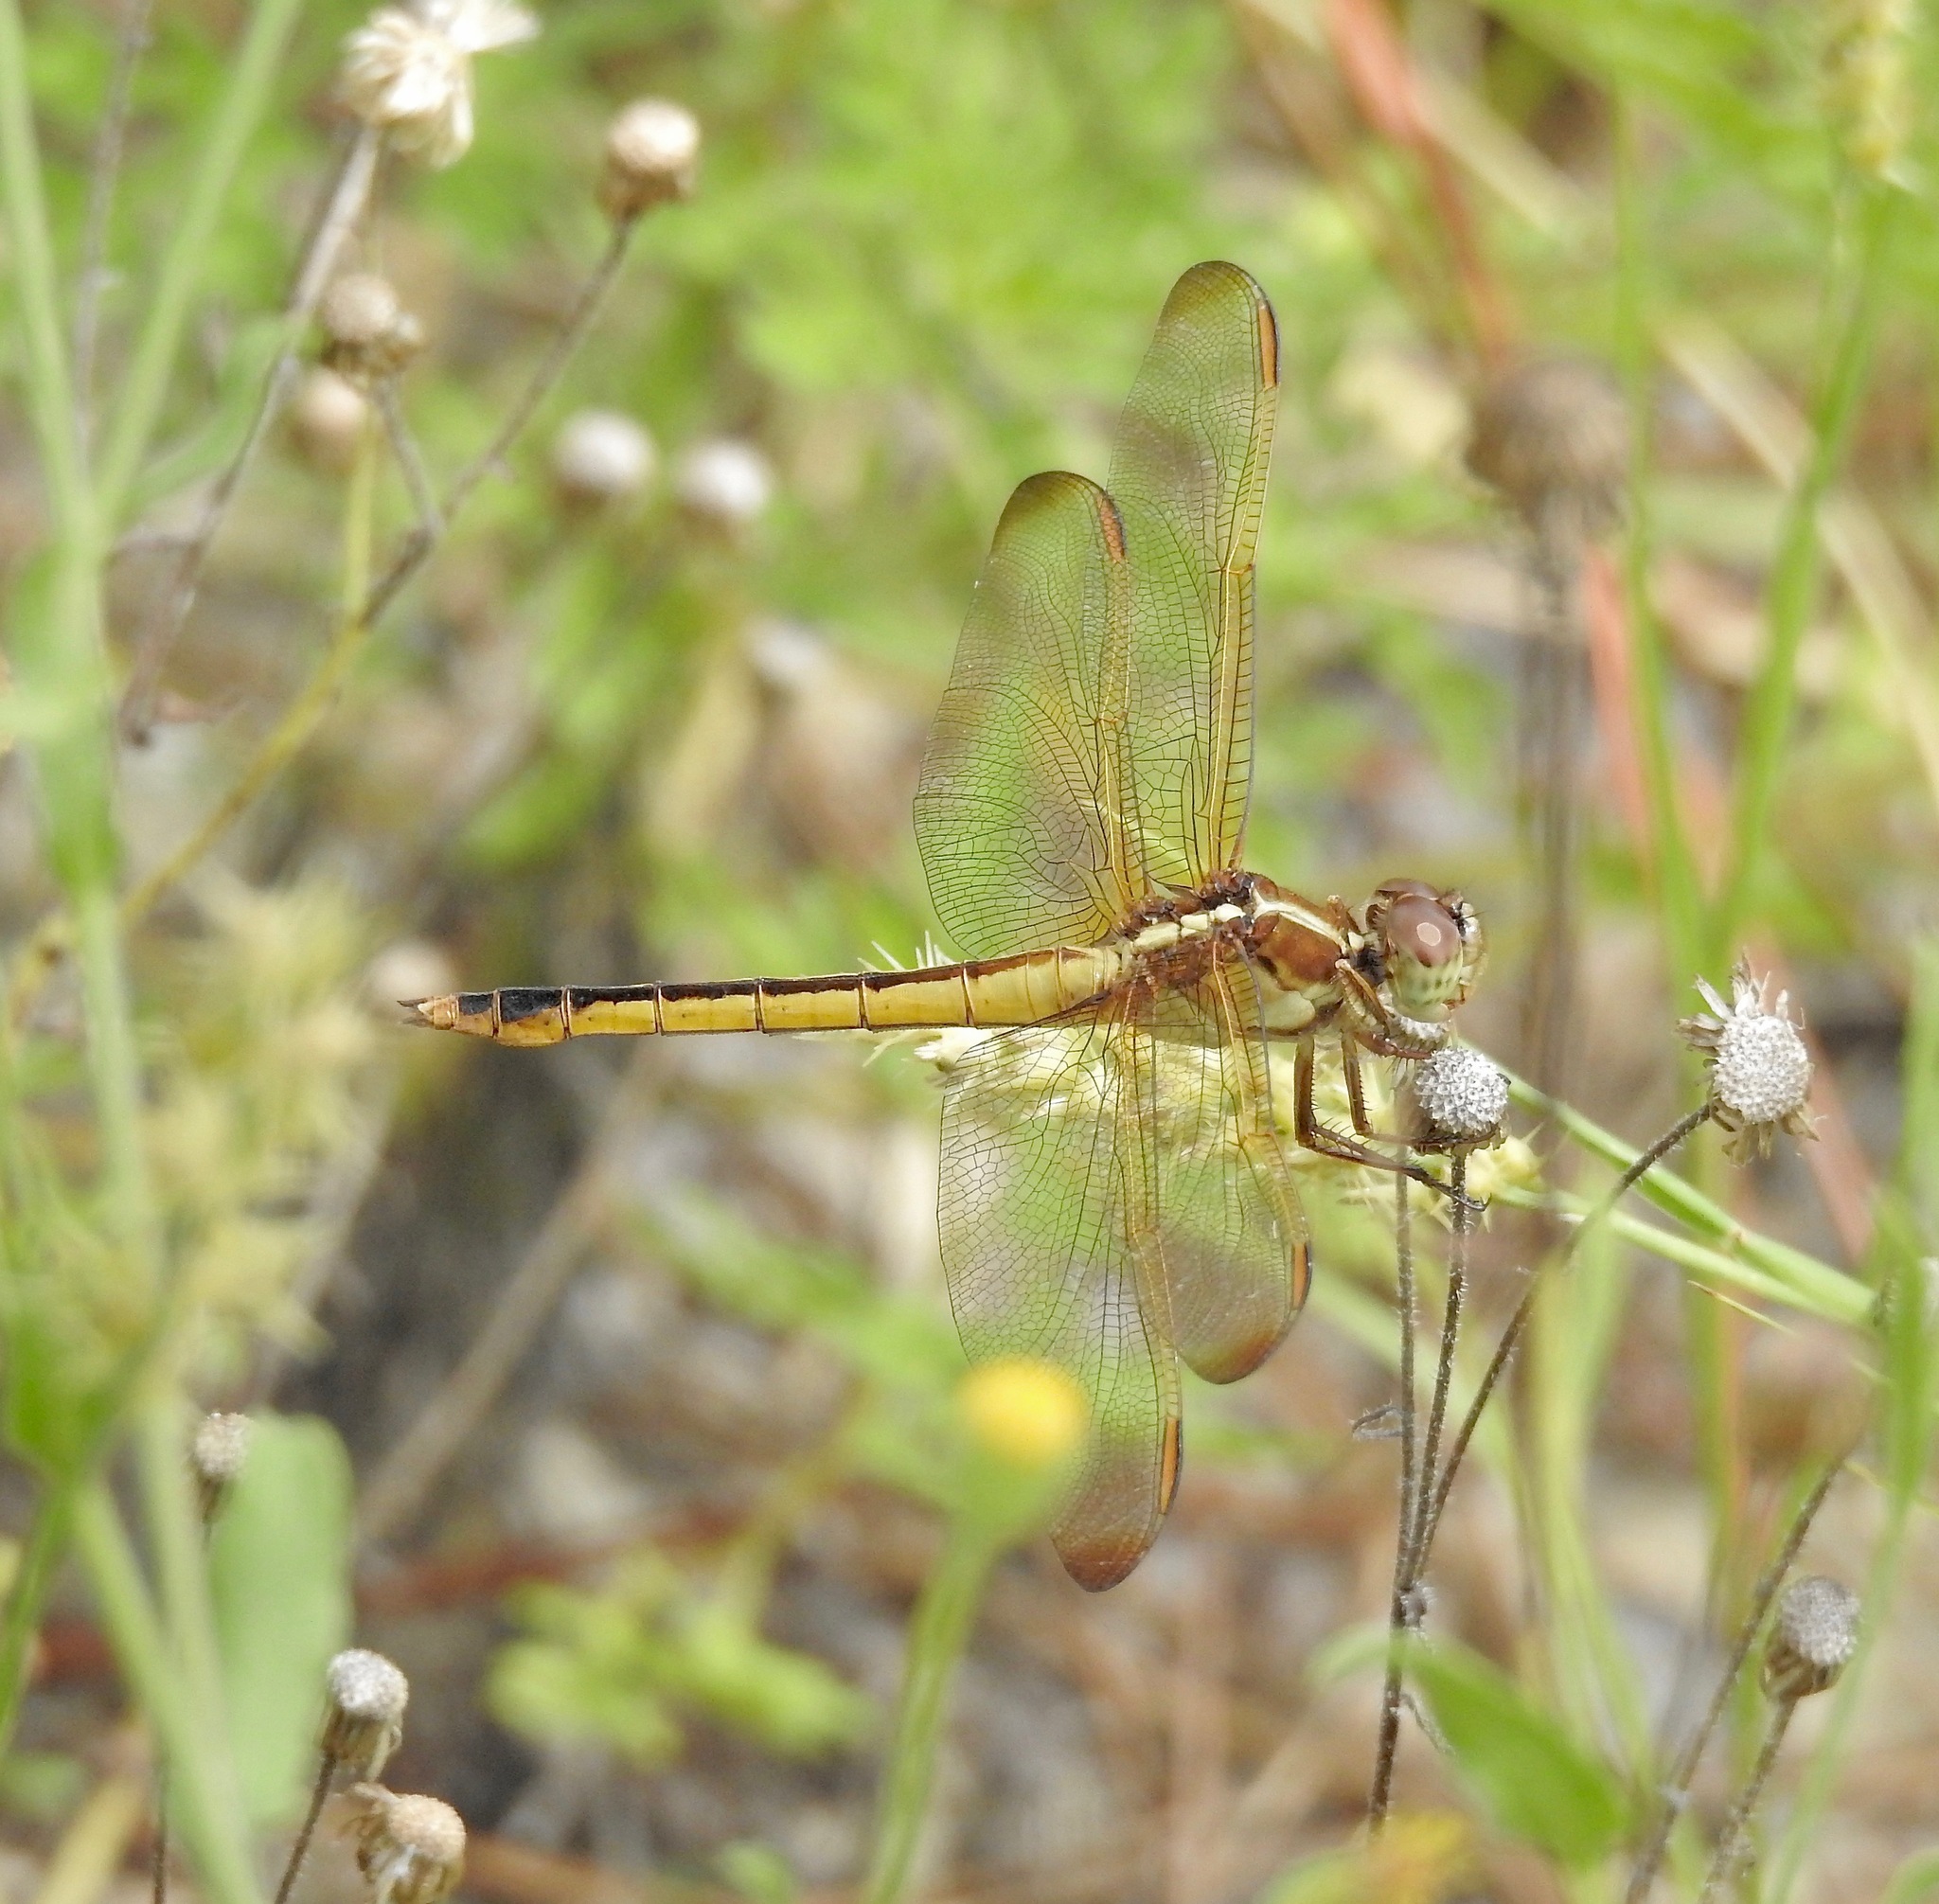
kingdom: Animalia
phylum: Arthropoda
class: Insecta
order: Odonata
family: Libellulidae
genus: Libellula
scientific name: Libellula needhami
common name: Needham's skimmer
